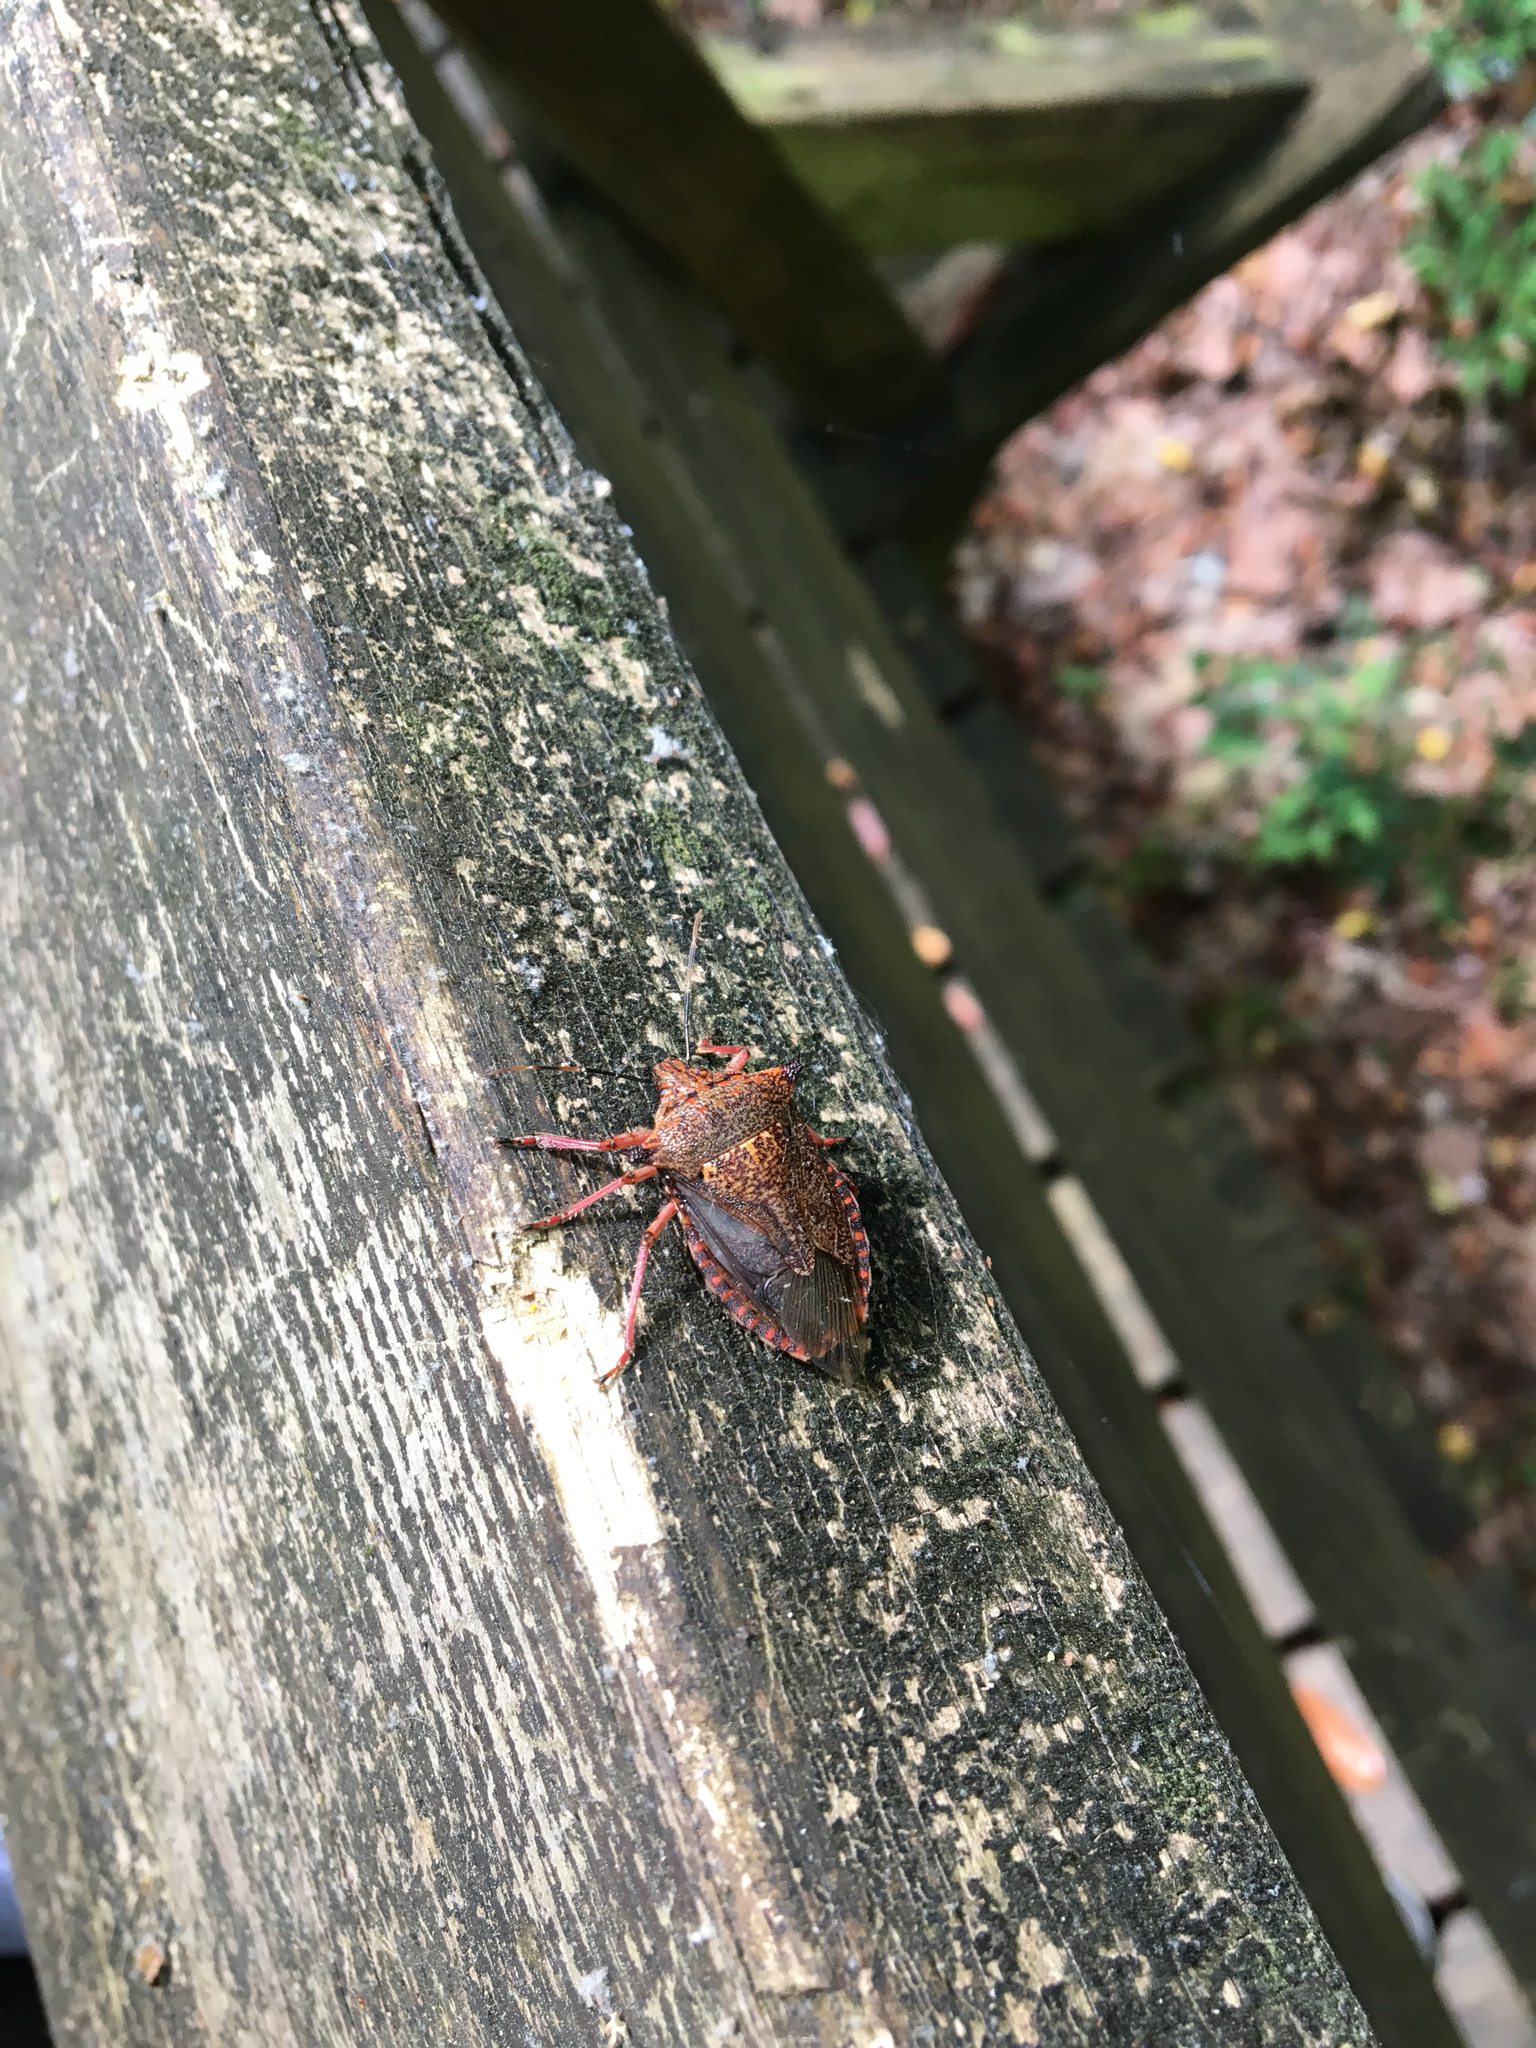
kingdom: Animalia
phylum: Arthropoda
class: Insecta
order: Hemiptera
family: Pentatomidae
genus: Alcaeorrhynchus
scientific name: Alcaeorrhynchus grandis
